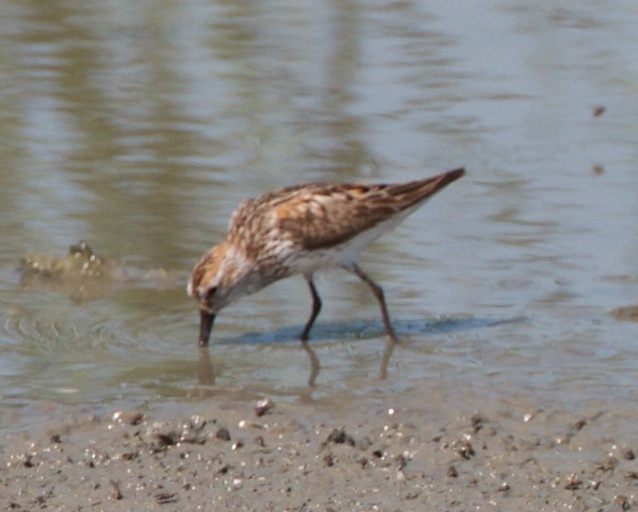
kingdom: Animalia
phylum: Chordata
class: Aves
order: Charadriiformes
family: Scolopacidae
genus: Calidris
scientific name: Calidris mauri
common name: Western sandpiper
